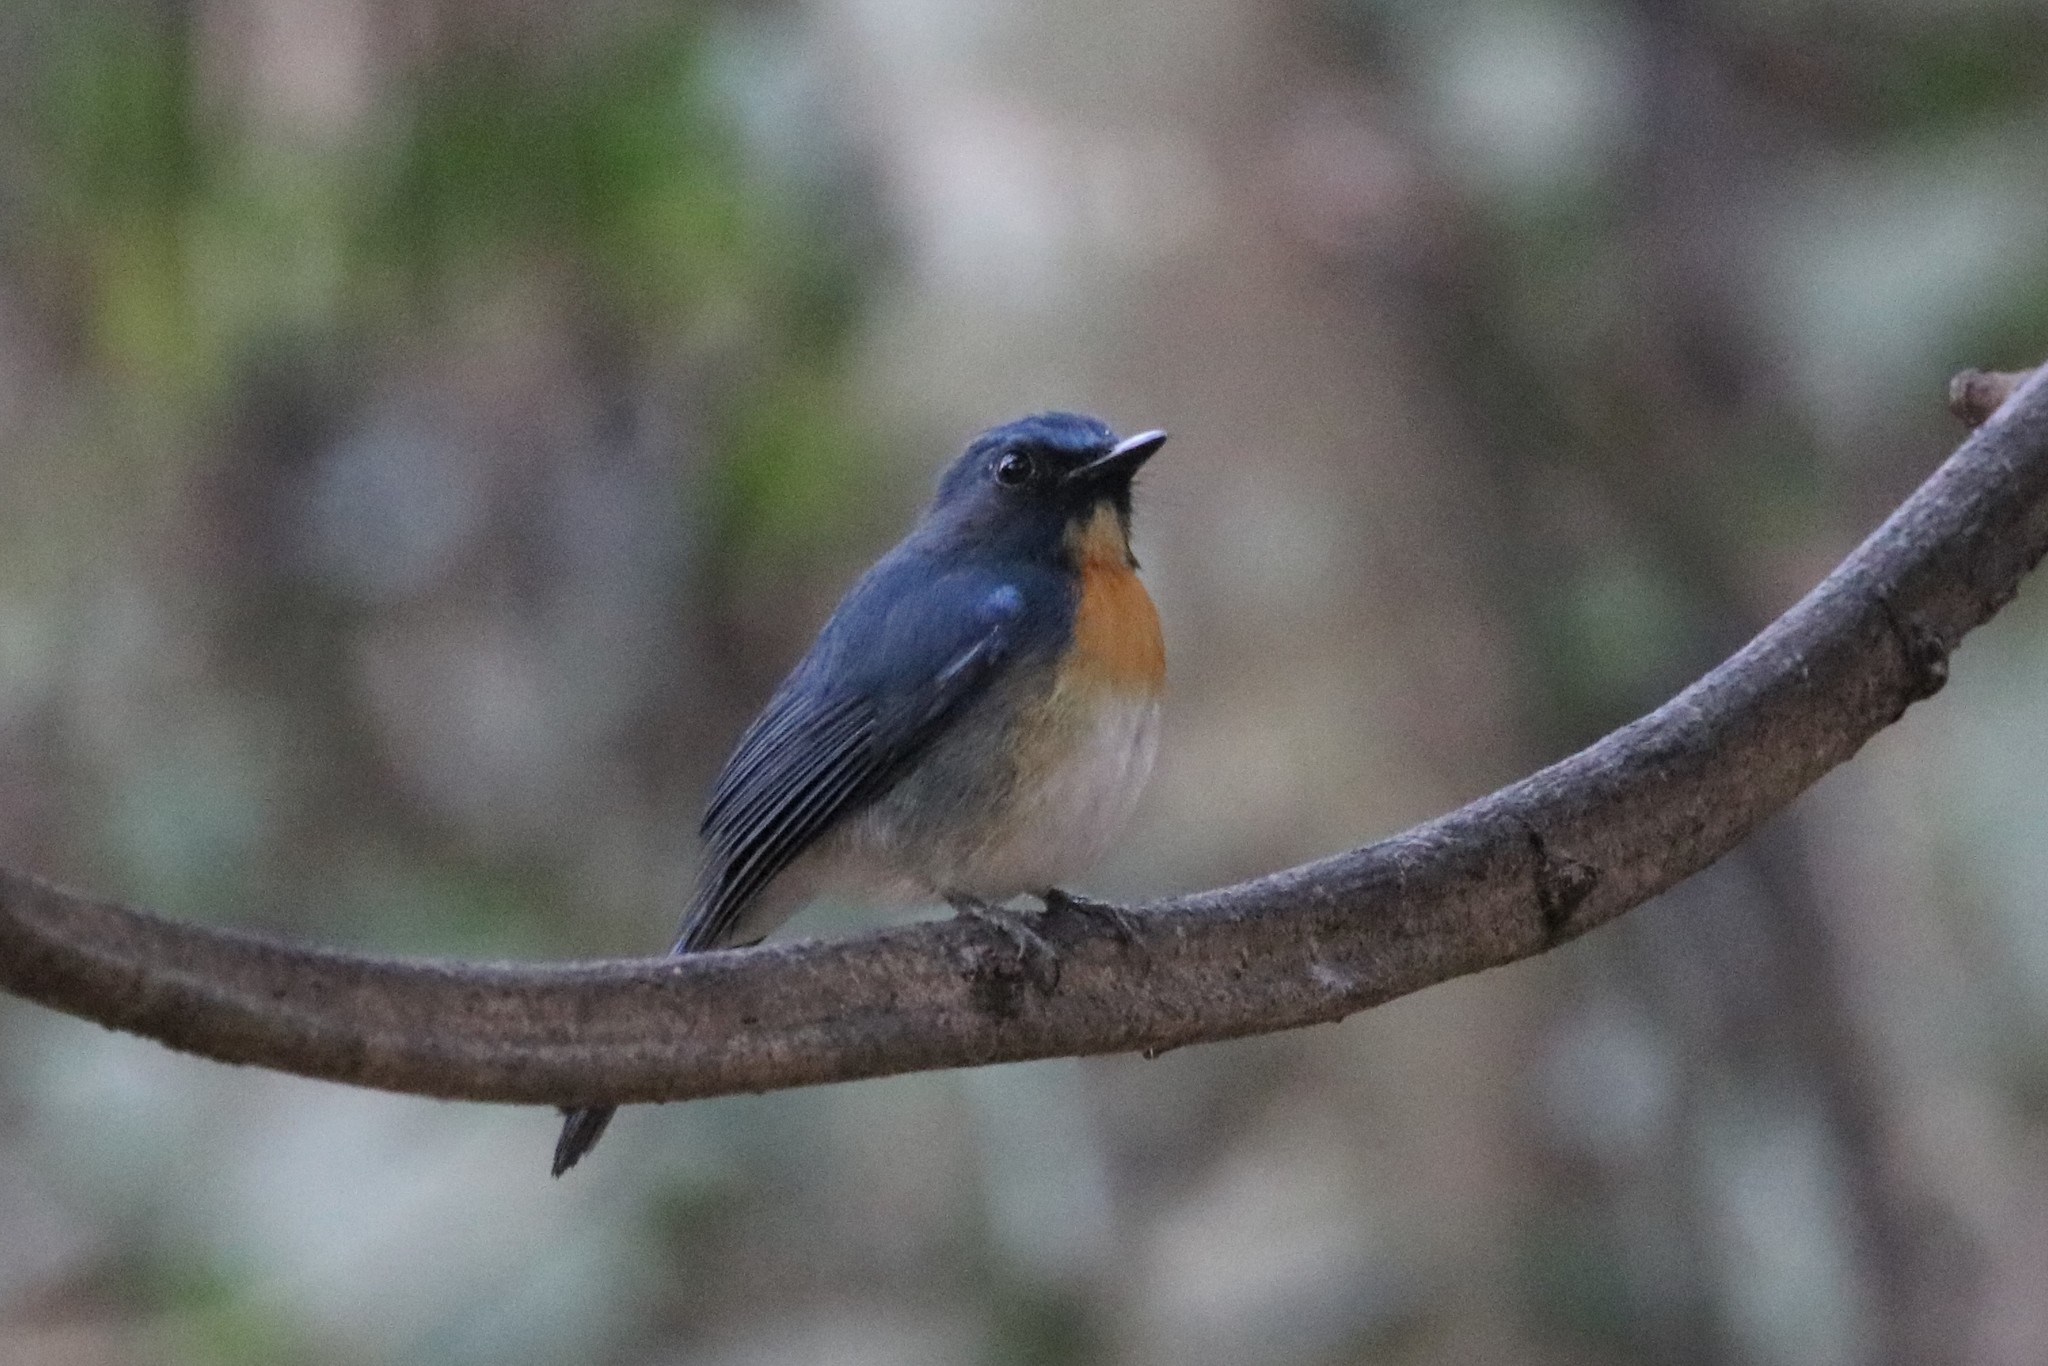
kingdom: Animalia
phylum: Chordata
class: Aves
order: Passeriformes
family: Muscicapidae
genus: Cyornis
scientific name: Cyornis tickelliae
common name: Tickell's blue flycatcher
